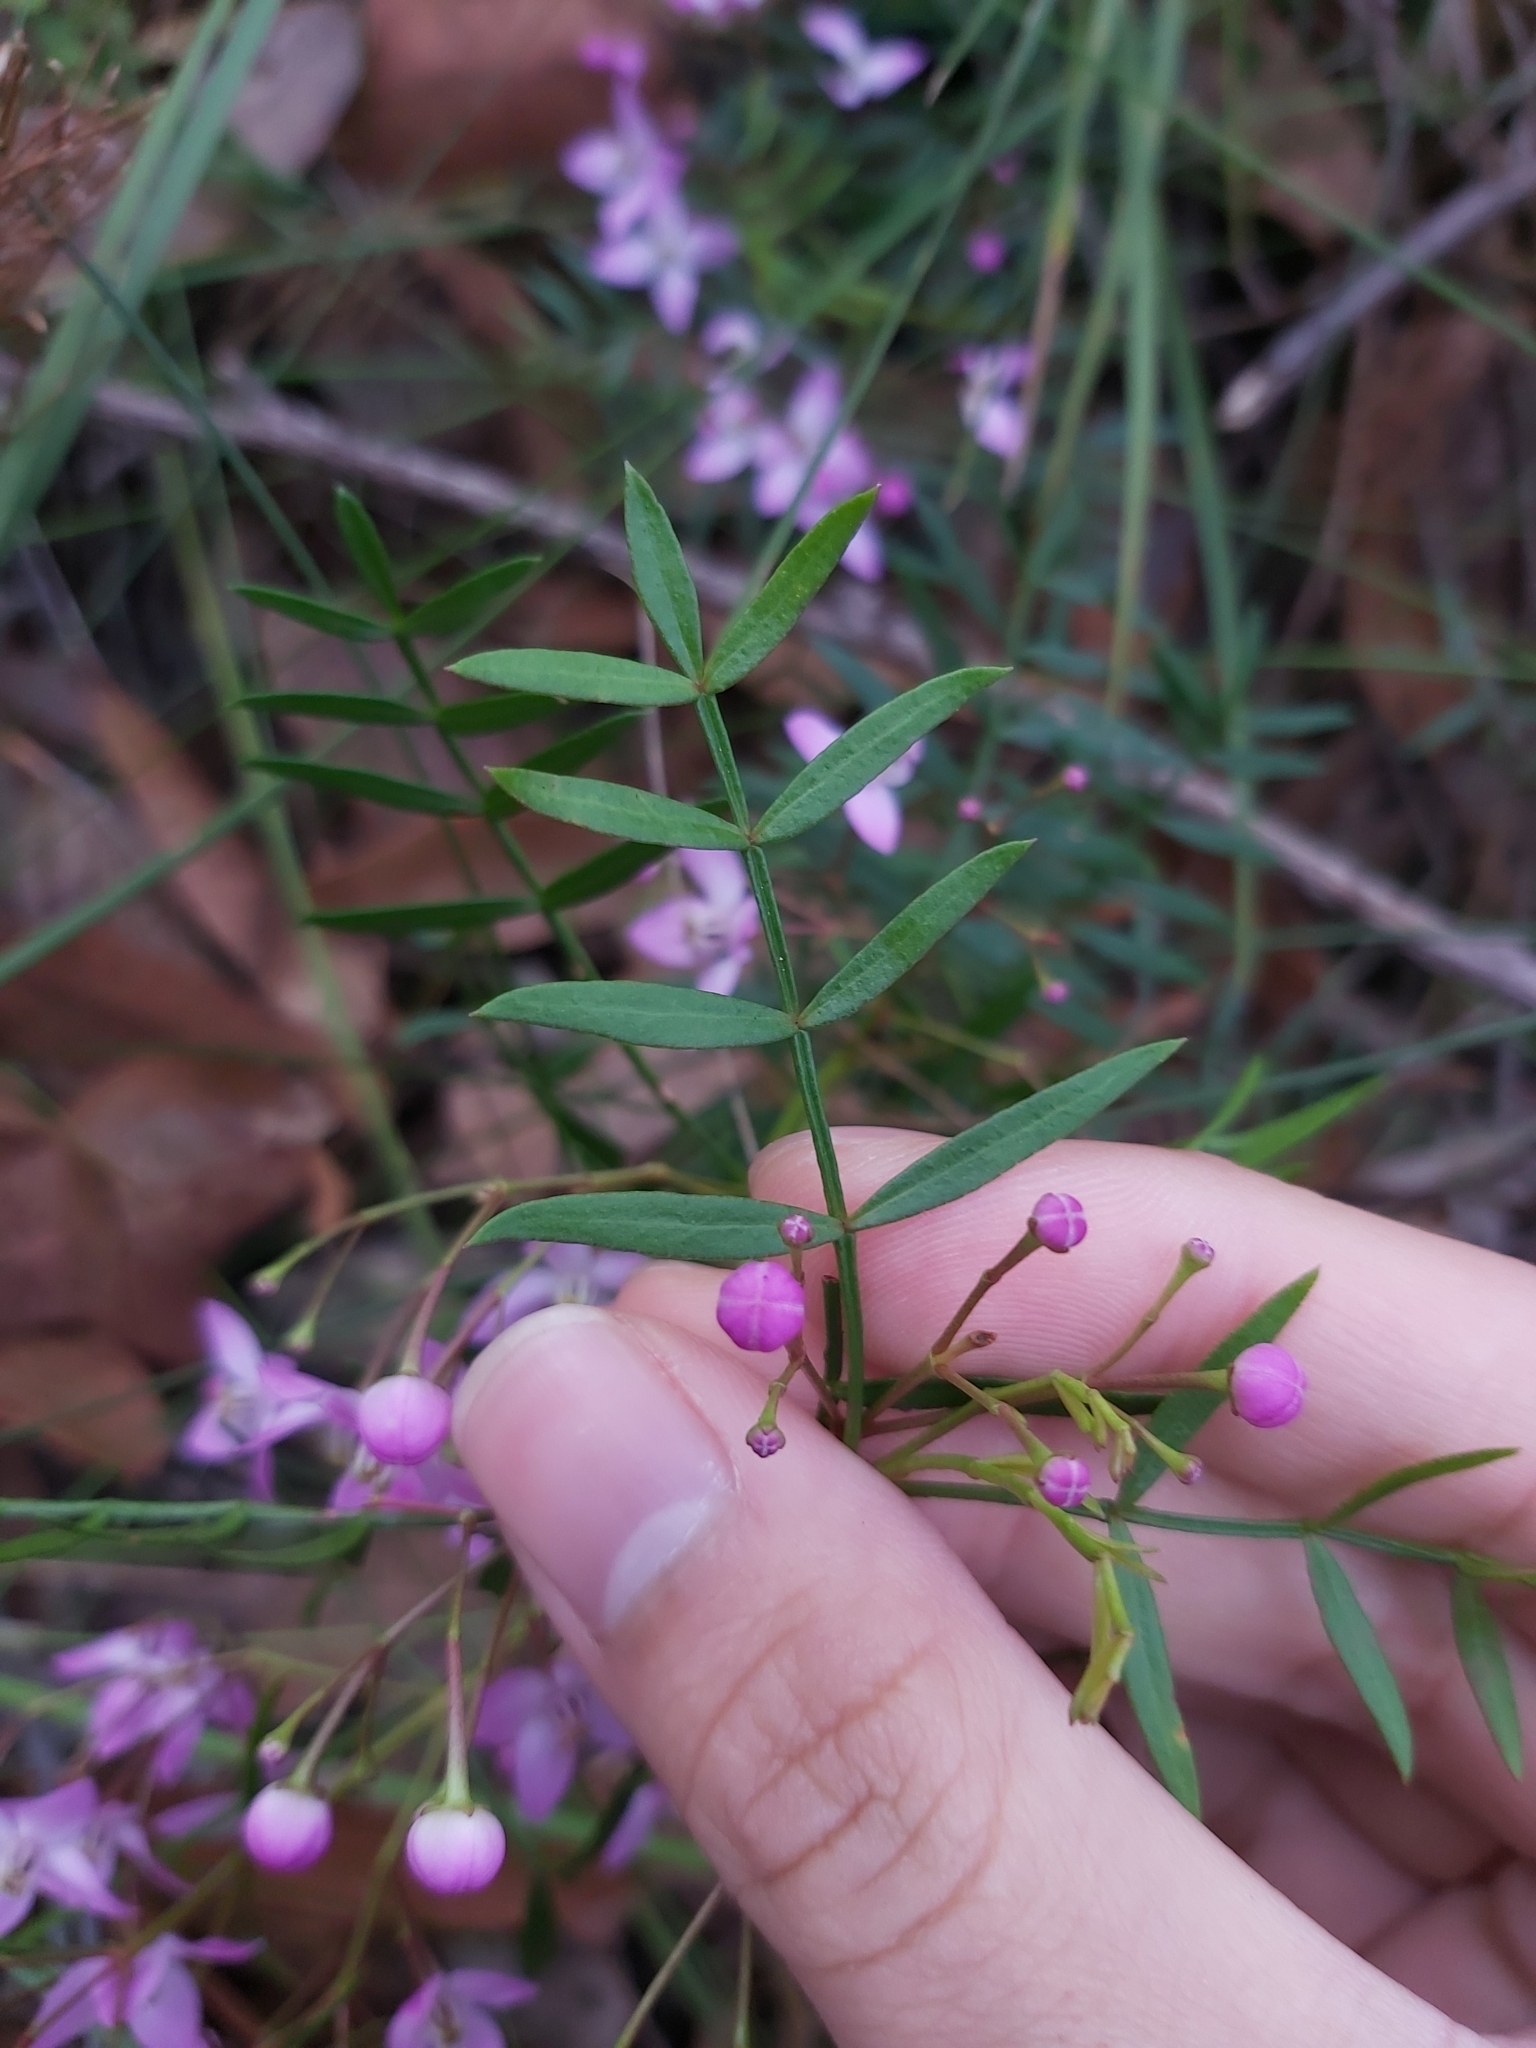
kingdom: Plantae
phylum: Tracheophyta
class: Magnoliopsida
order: Sapindales
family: Rutaceae
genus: Boronia
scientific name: Boronia pinnata
